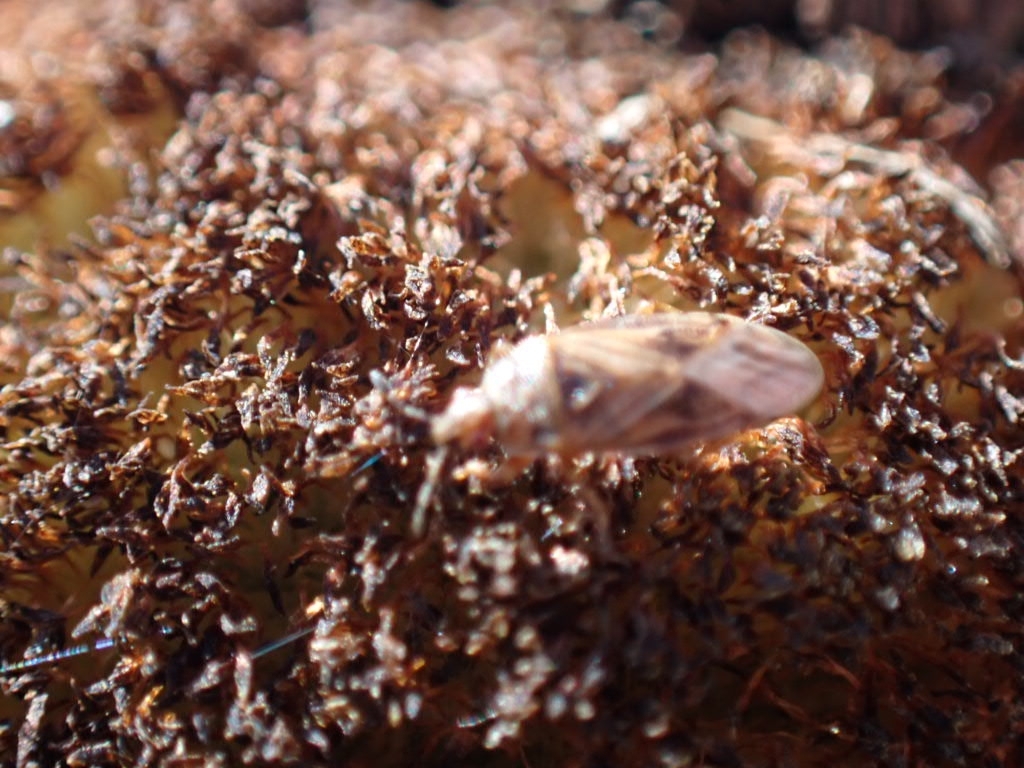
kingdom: Animalia
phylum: Arthropoda
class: Insecta
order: Hemiptera
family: Artheneidae
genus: Chilacis
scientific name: Chilacis typhae
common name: Cattail bug
